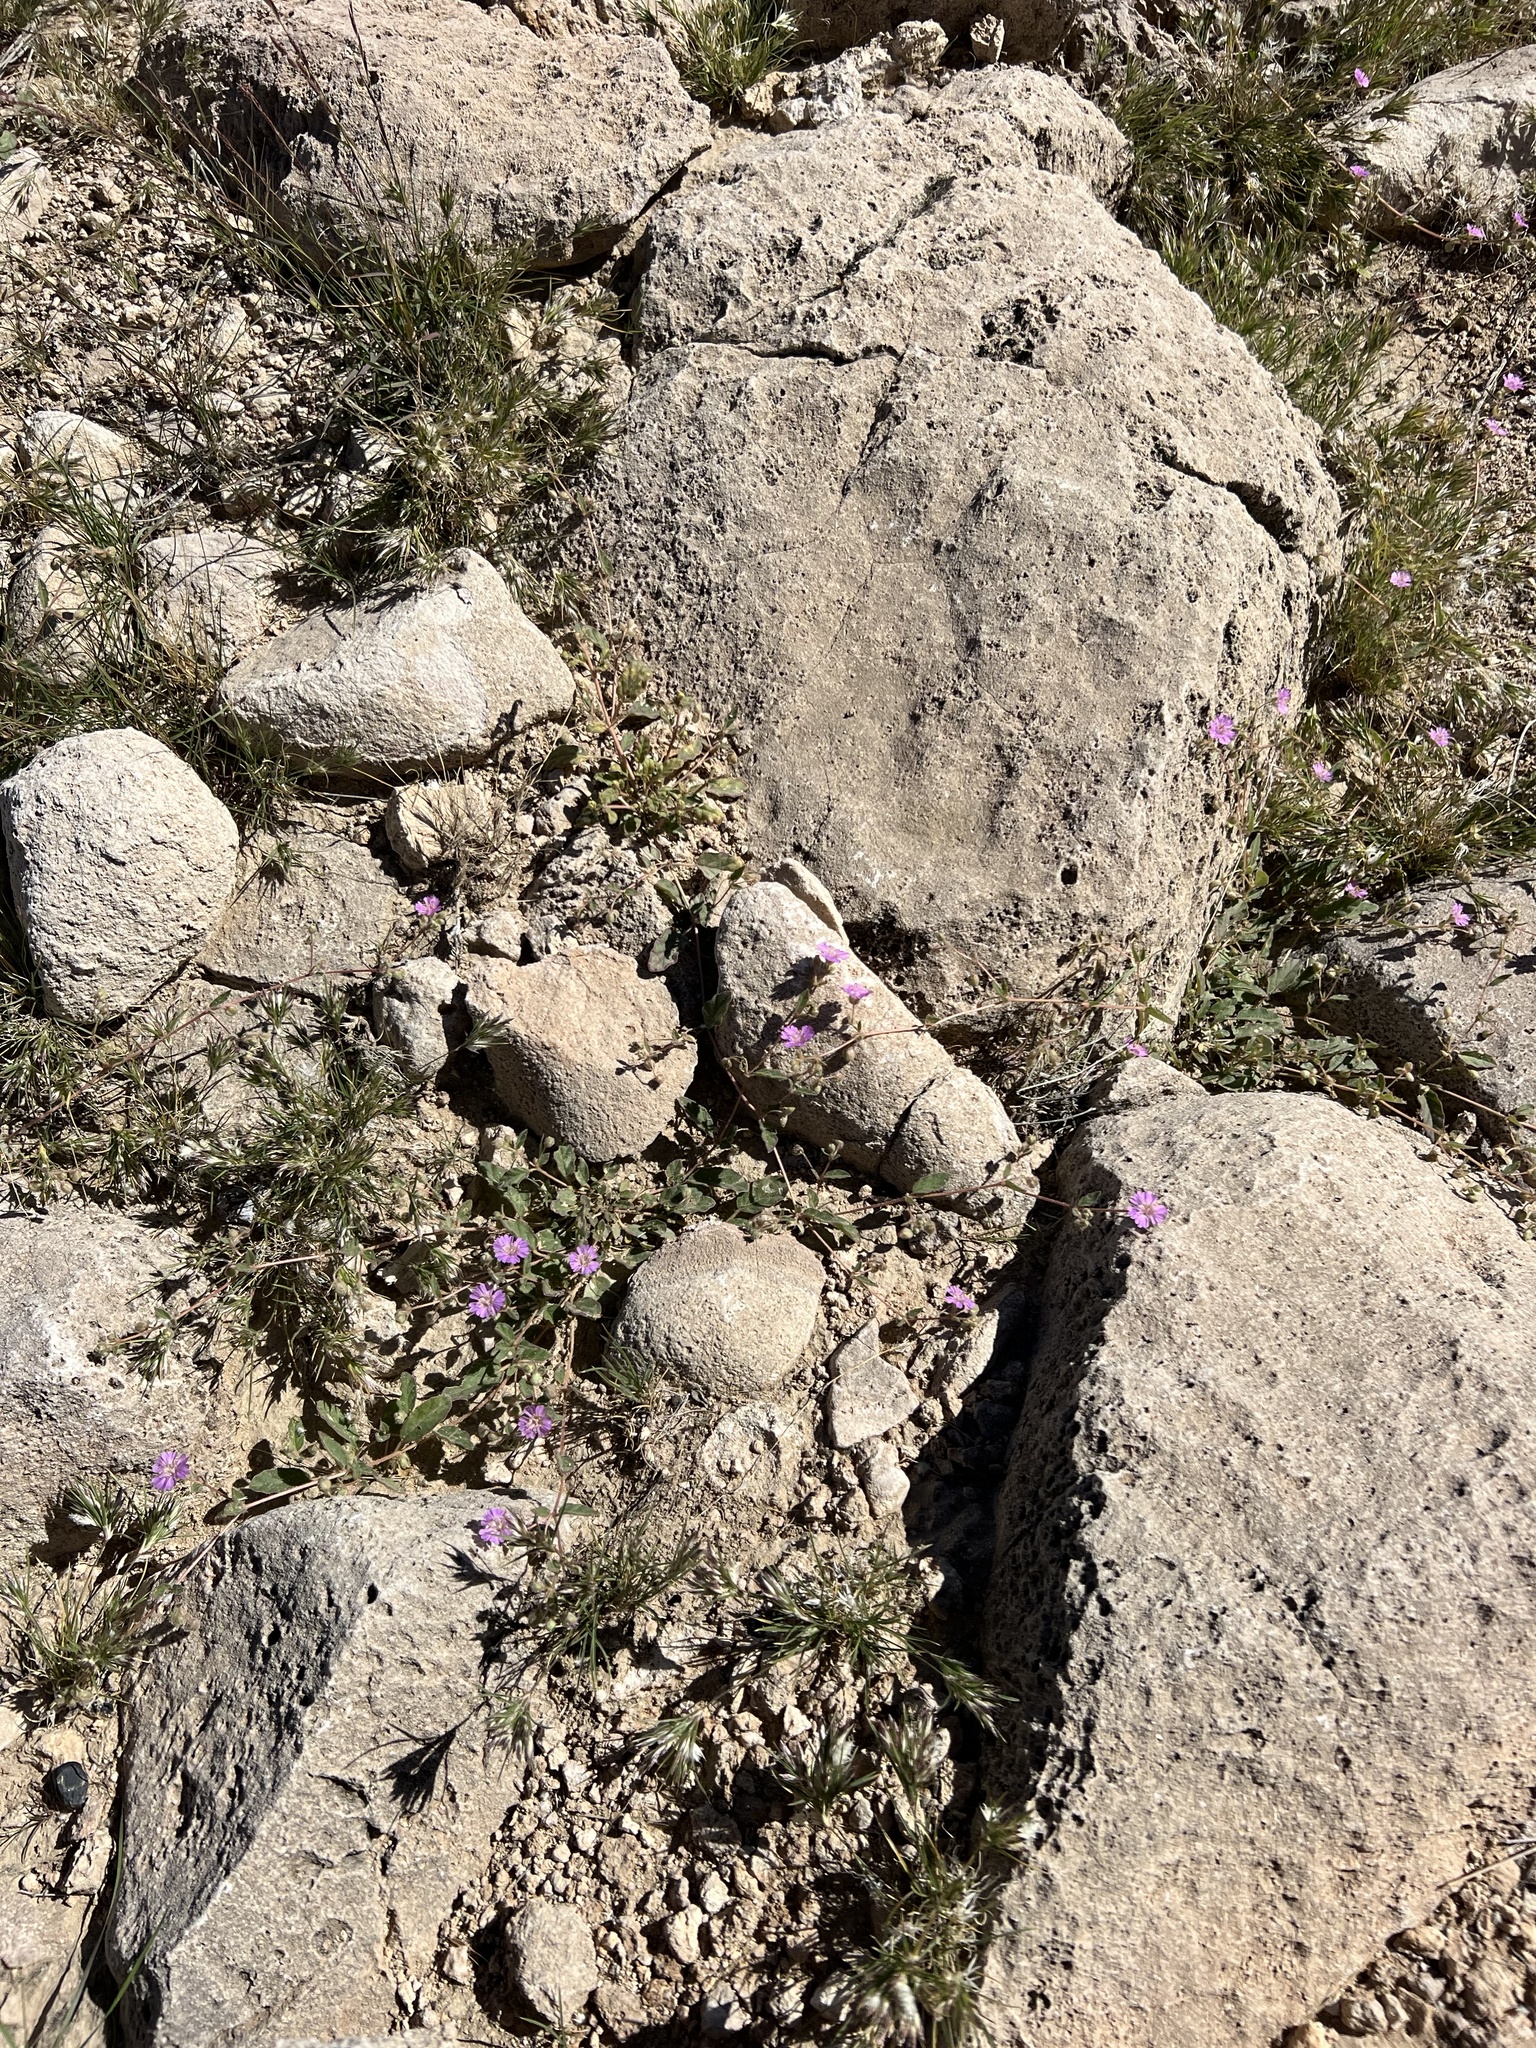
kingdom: Plantae
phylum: Tracheophyta
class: Magnoliopsida
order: Caryophyllales
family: Nyctaginaceae
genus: Allionia
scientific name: Allionia incarnata
